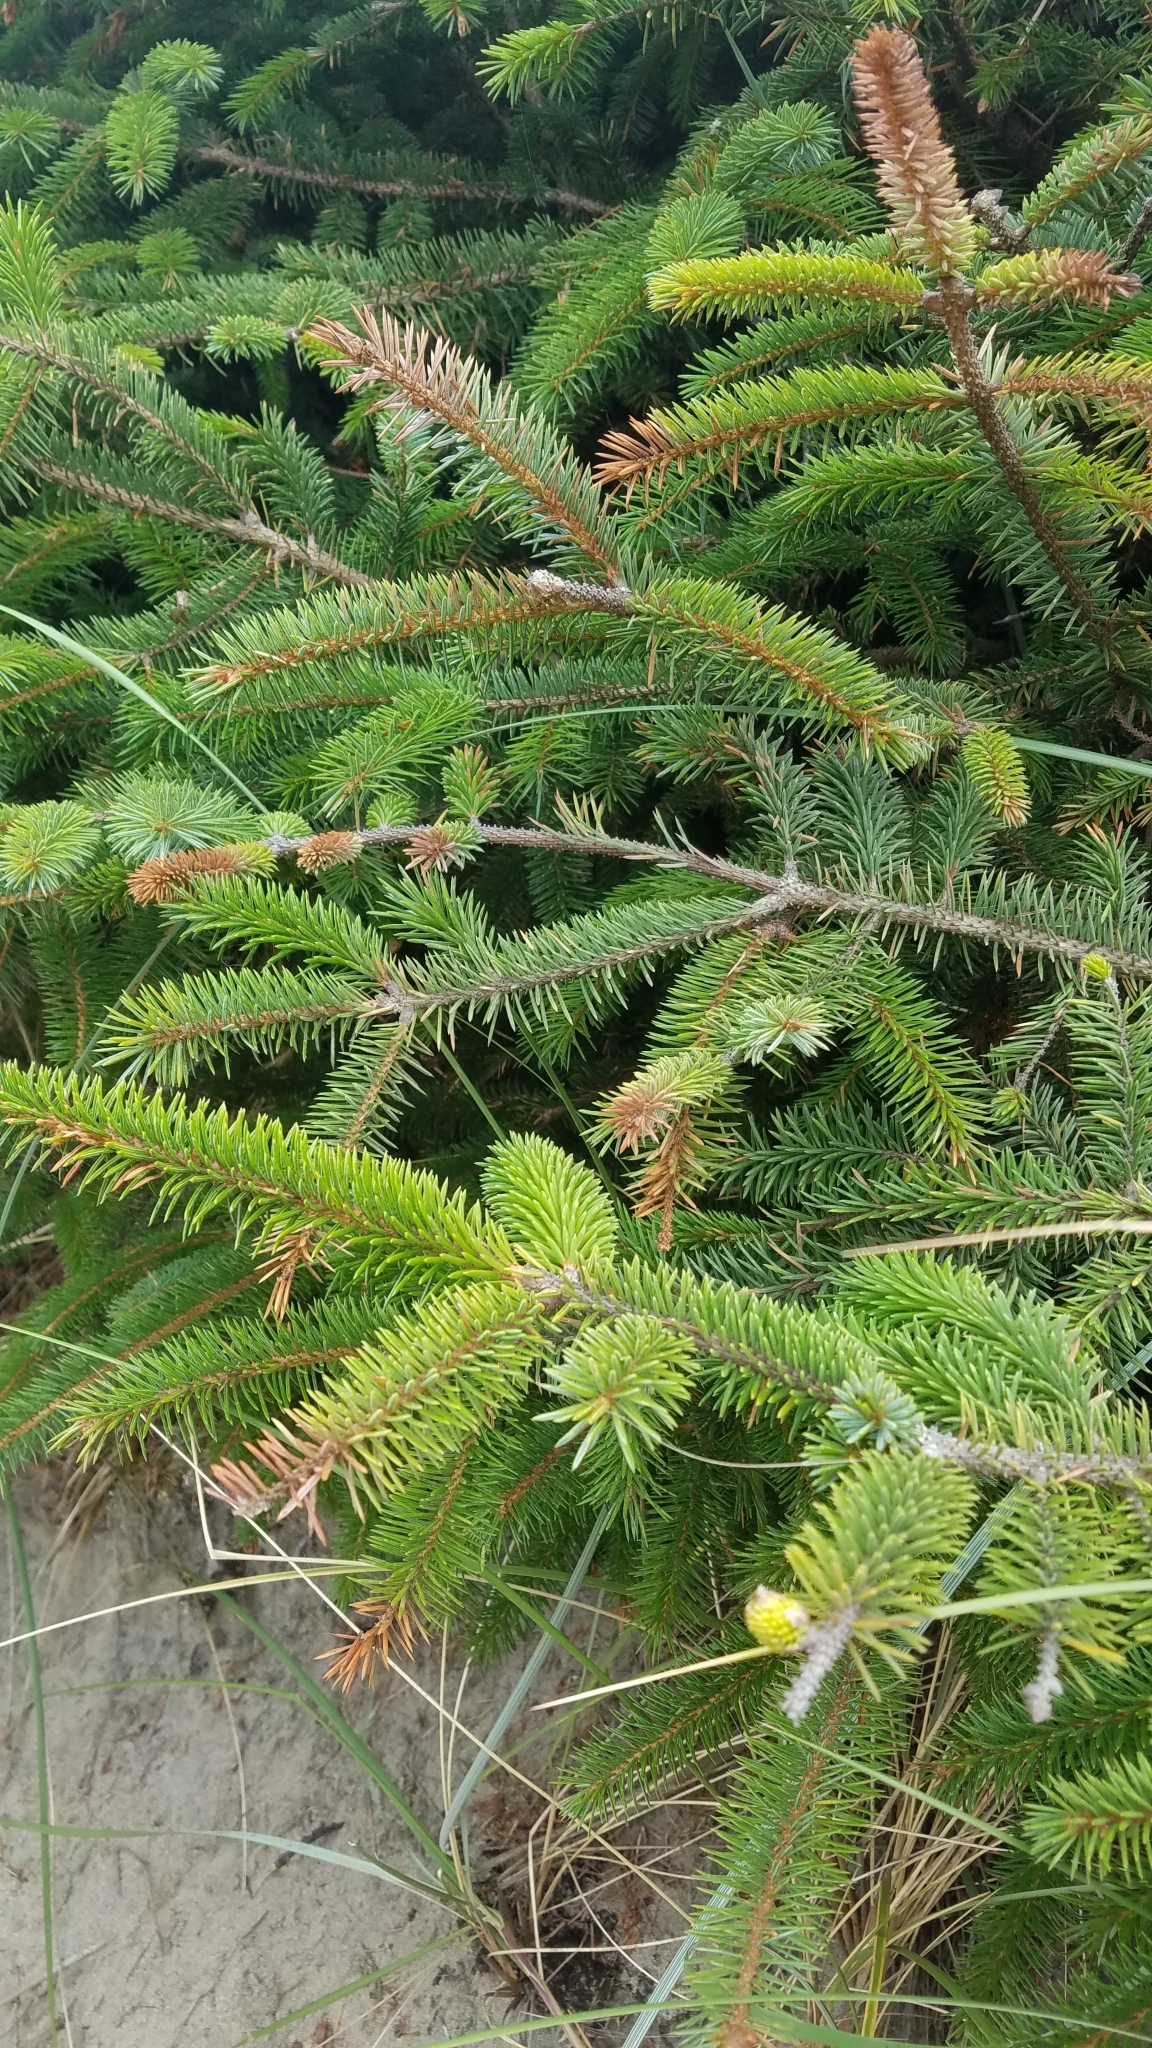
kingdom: Plantae
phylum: Tracheophyta
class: Pinopsida
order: Pinales
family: Pinaceae
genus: Picea
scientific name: Picea sitchensis
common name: Sitka spruce
